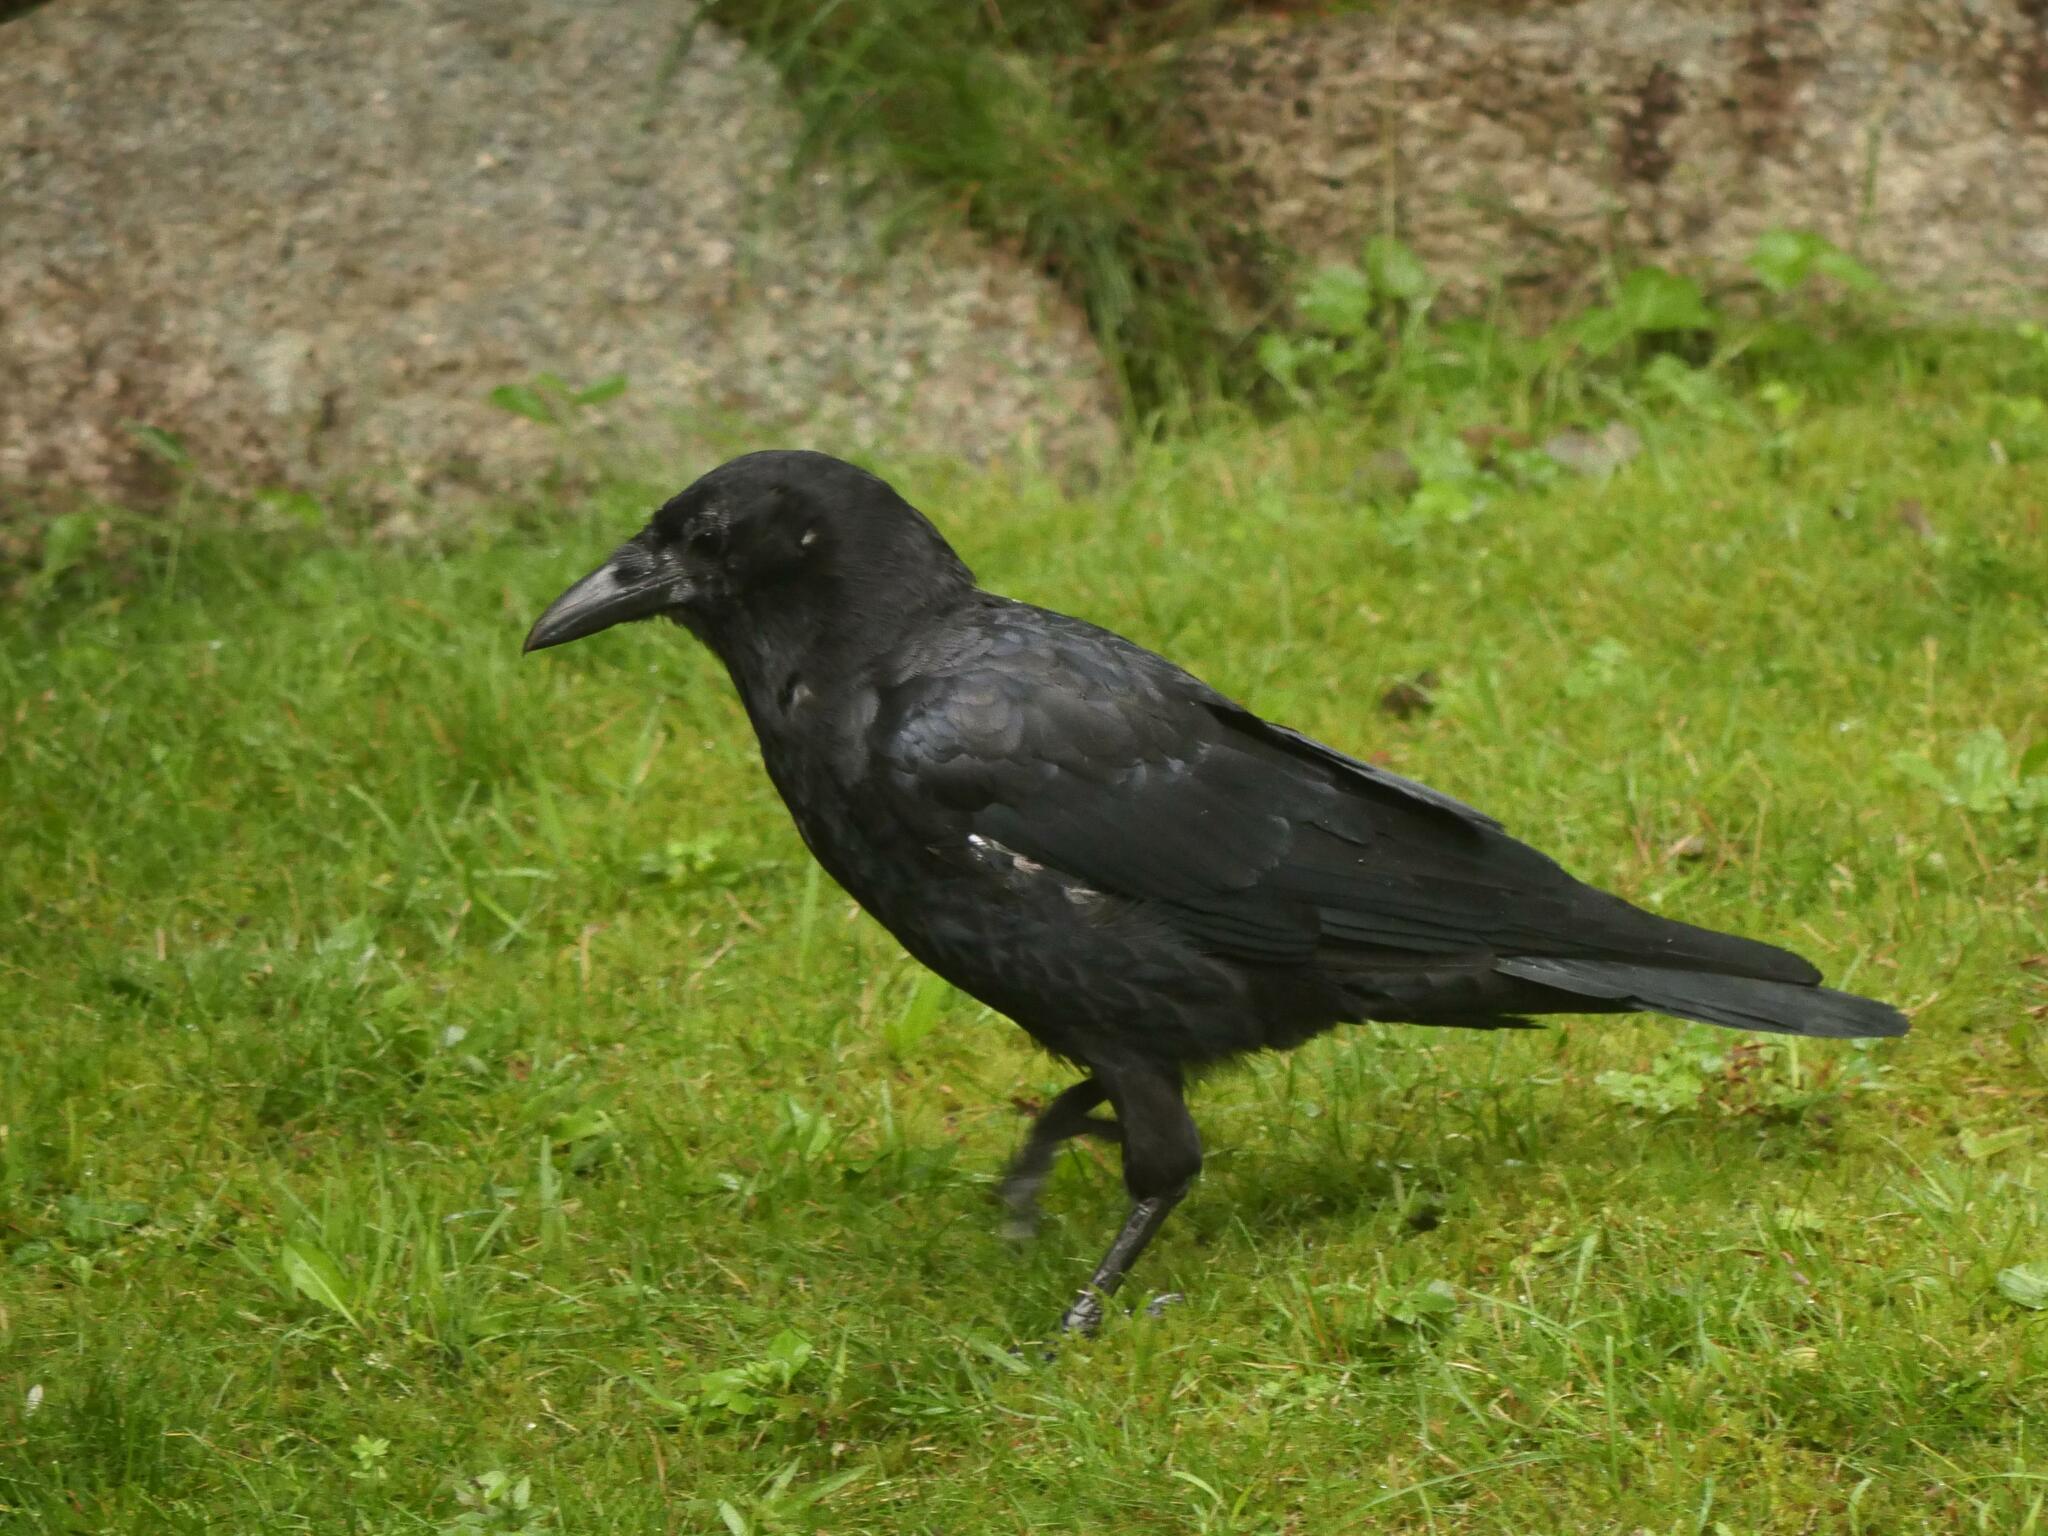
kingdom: Animalia
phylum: Chordata
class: Aves
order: Passeriformes
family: Corvidae
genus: Corvus
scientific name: Corvus brachyrhynchos
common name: American crow
